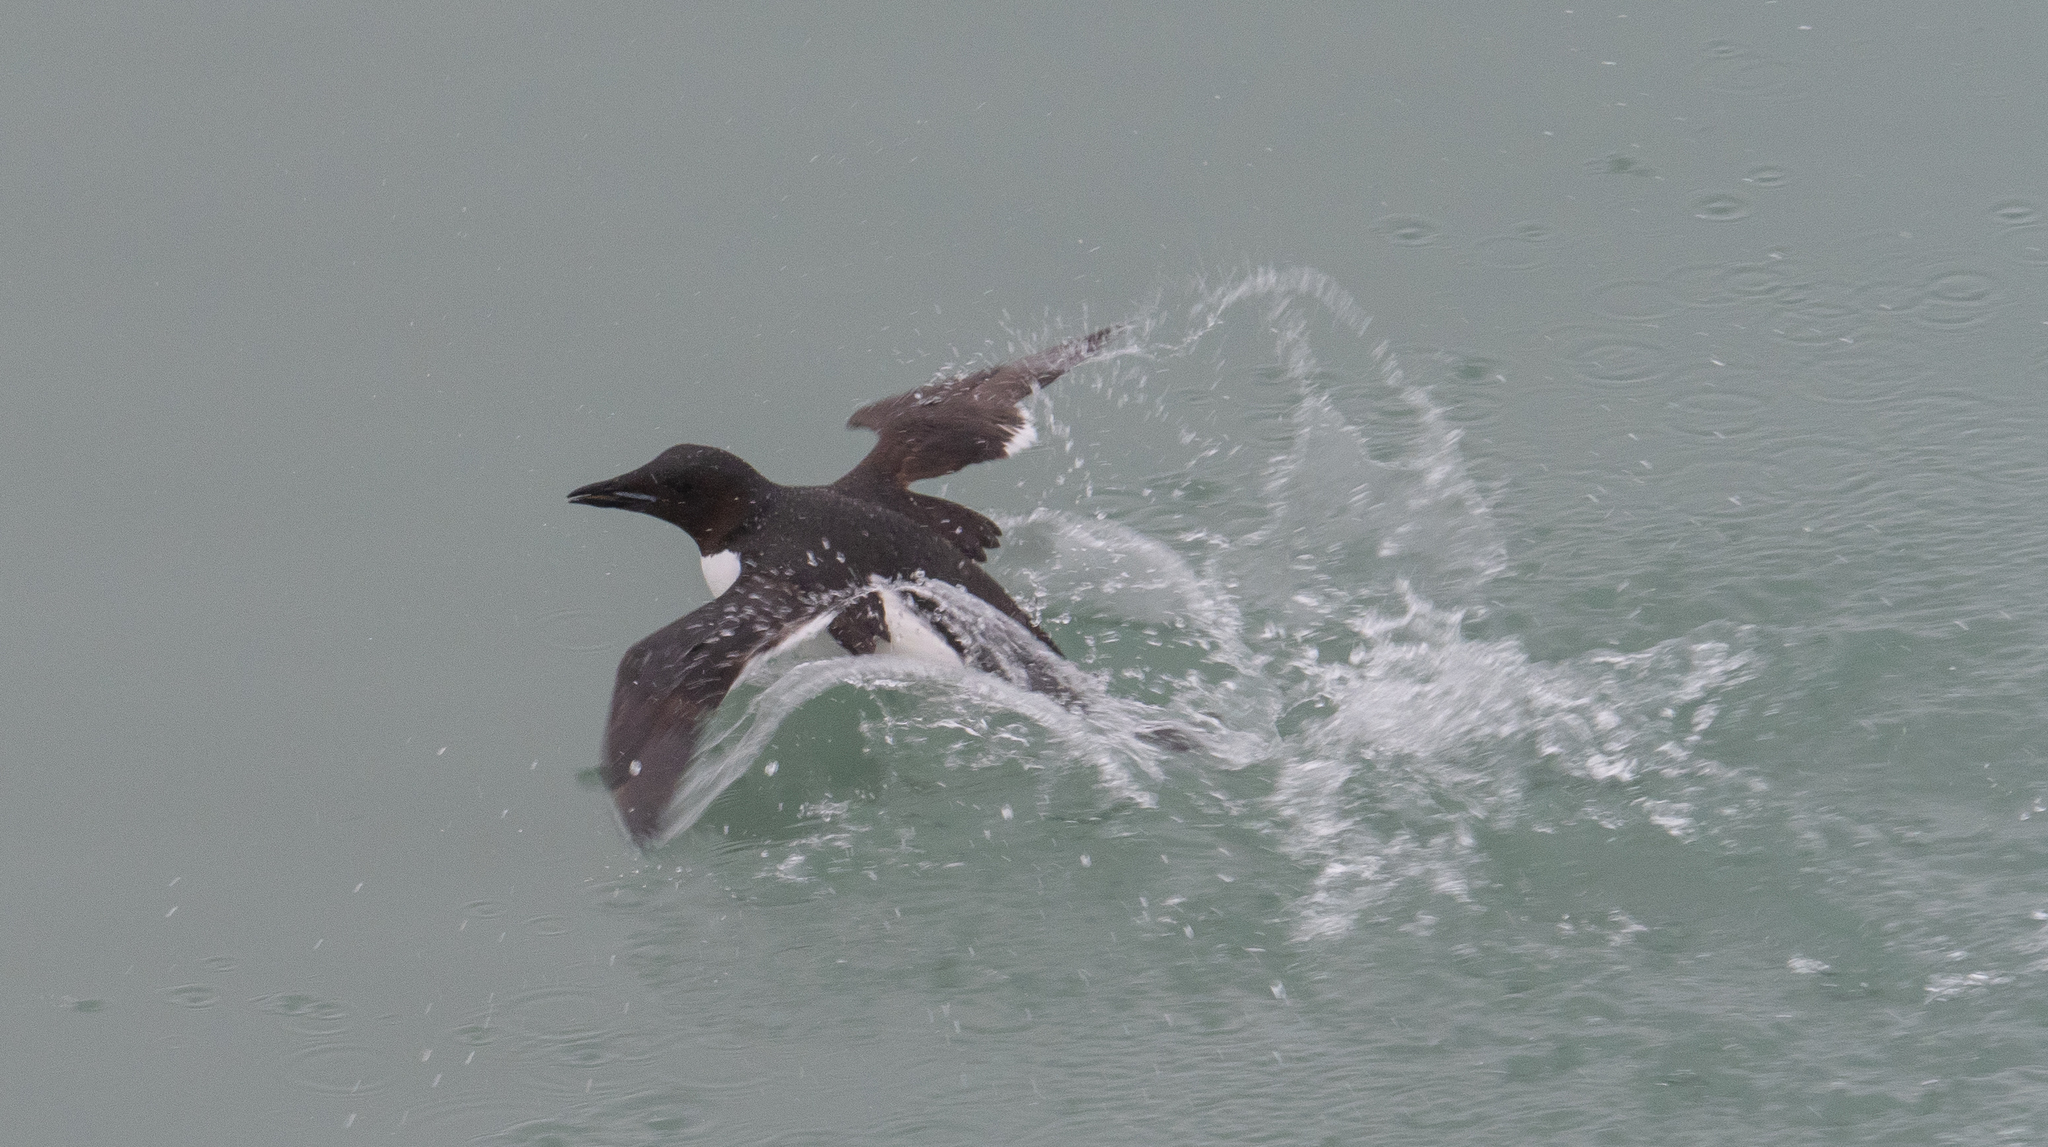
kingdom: Animalia
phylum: Chordata
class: Aves
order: Charadriiformes
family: Alcidae
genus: Uria
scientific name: Uria lomvia
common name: Thick-billed murre
